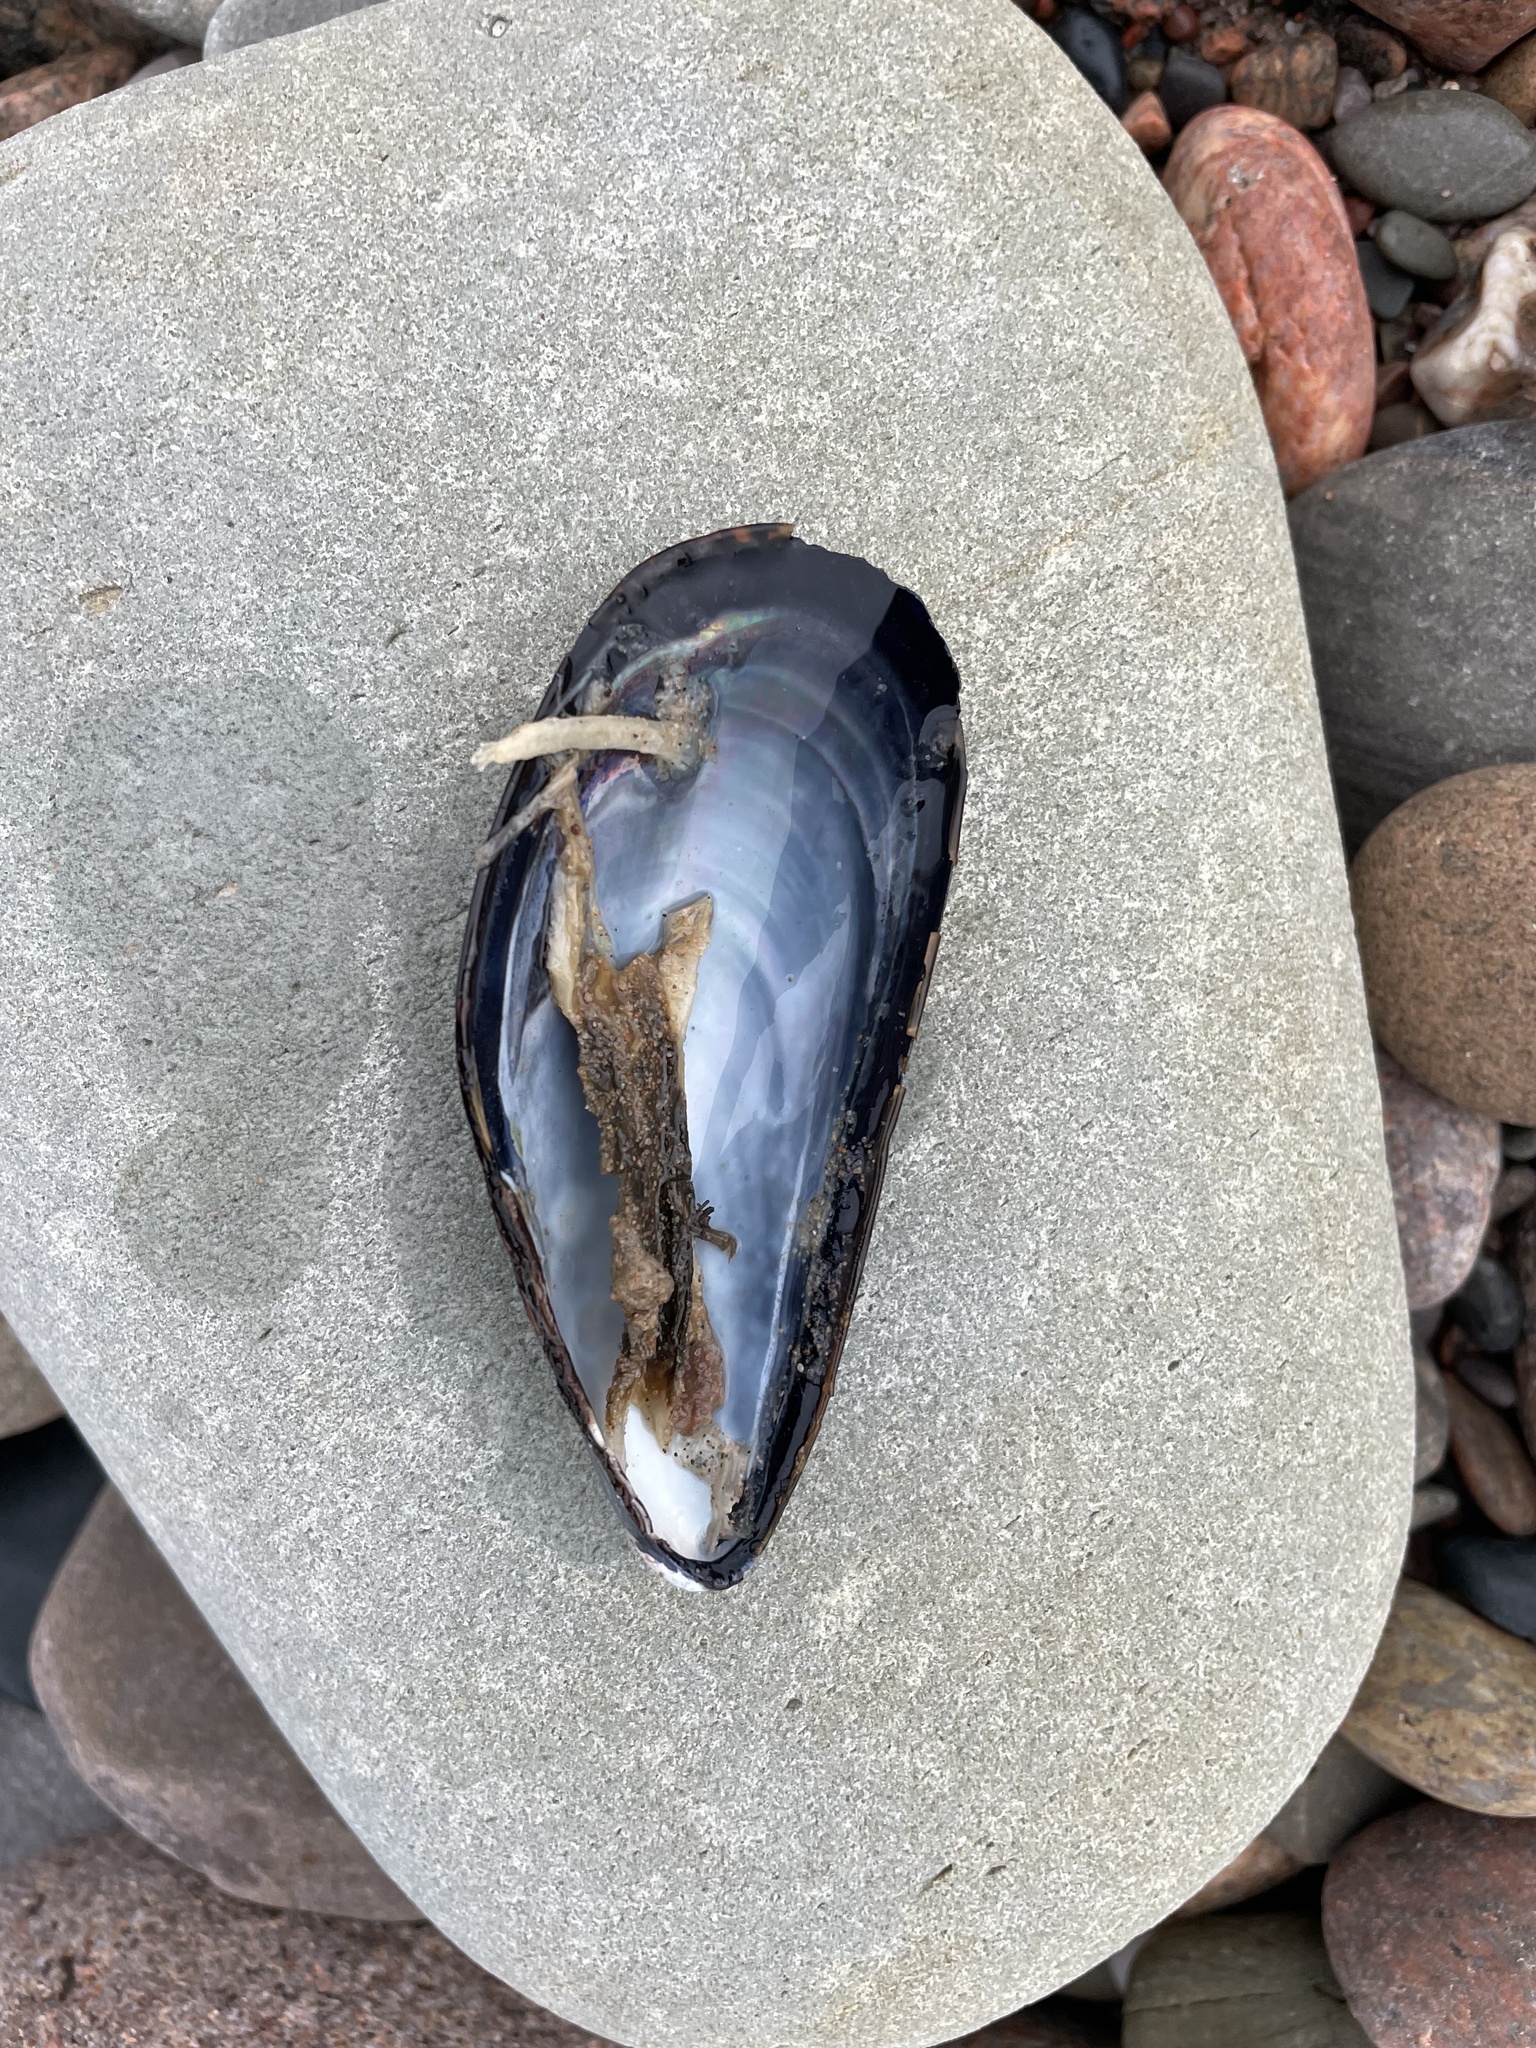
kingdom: Animalia
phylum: Mollusca
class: Bivalvia
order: Mytilida
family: Mytilidae
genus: Mytilus
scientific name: Mytilus edulis
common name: Blue mussel
